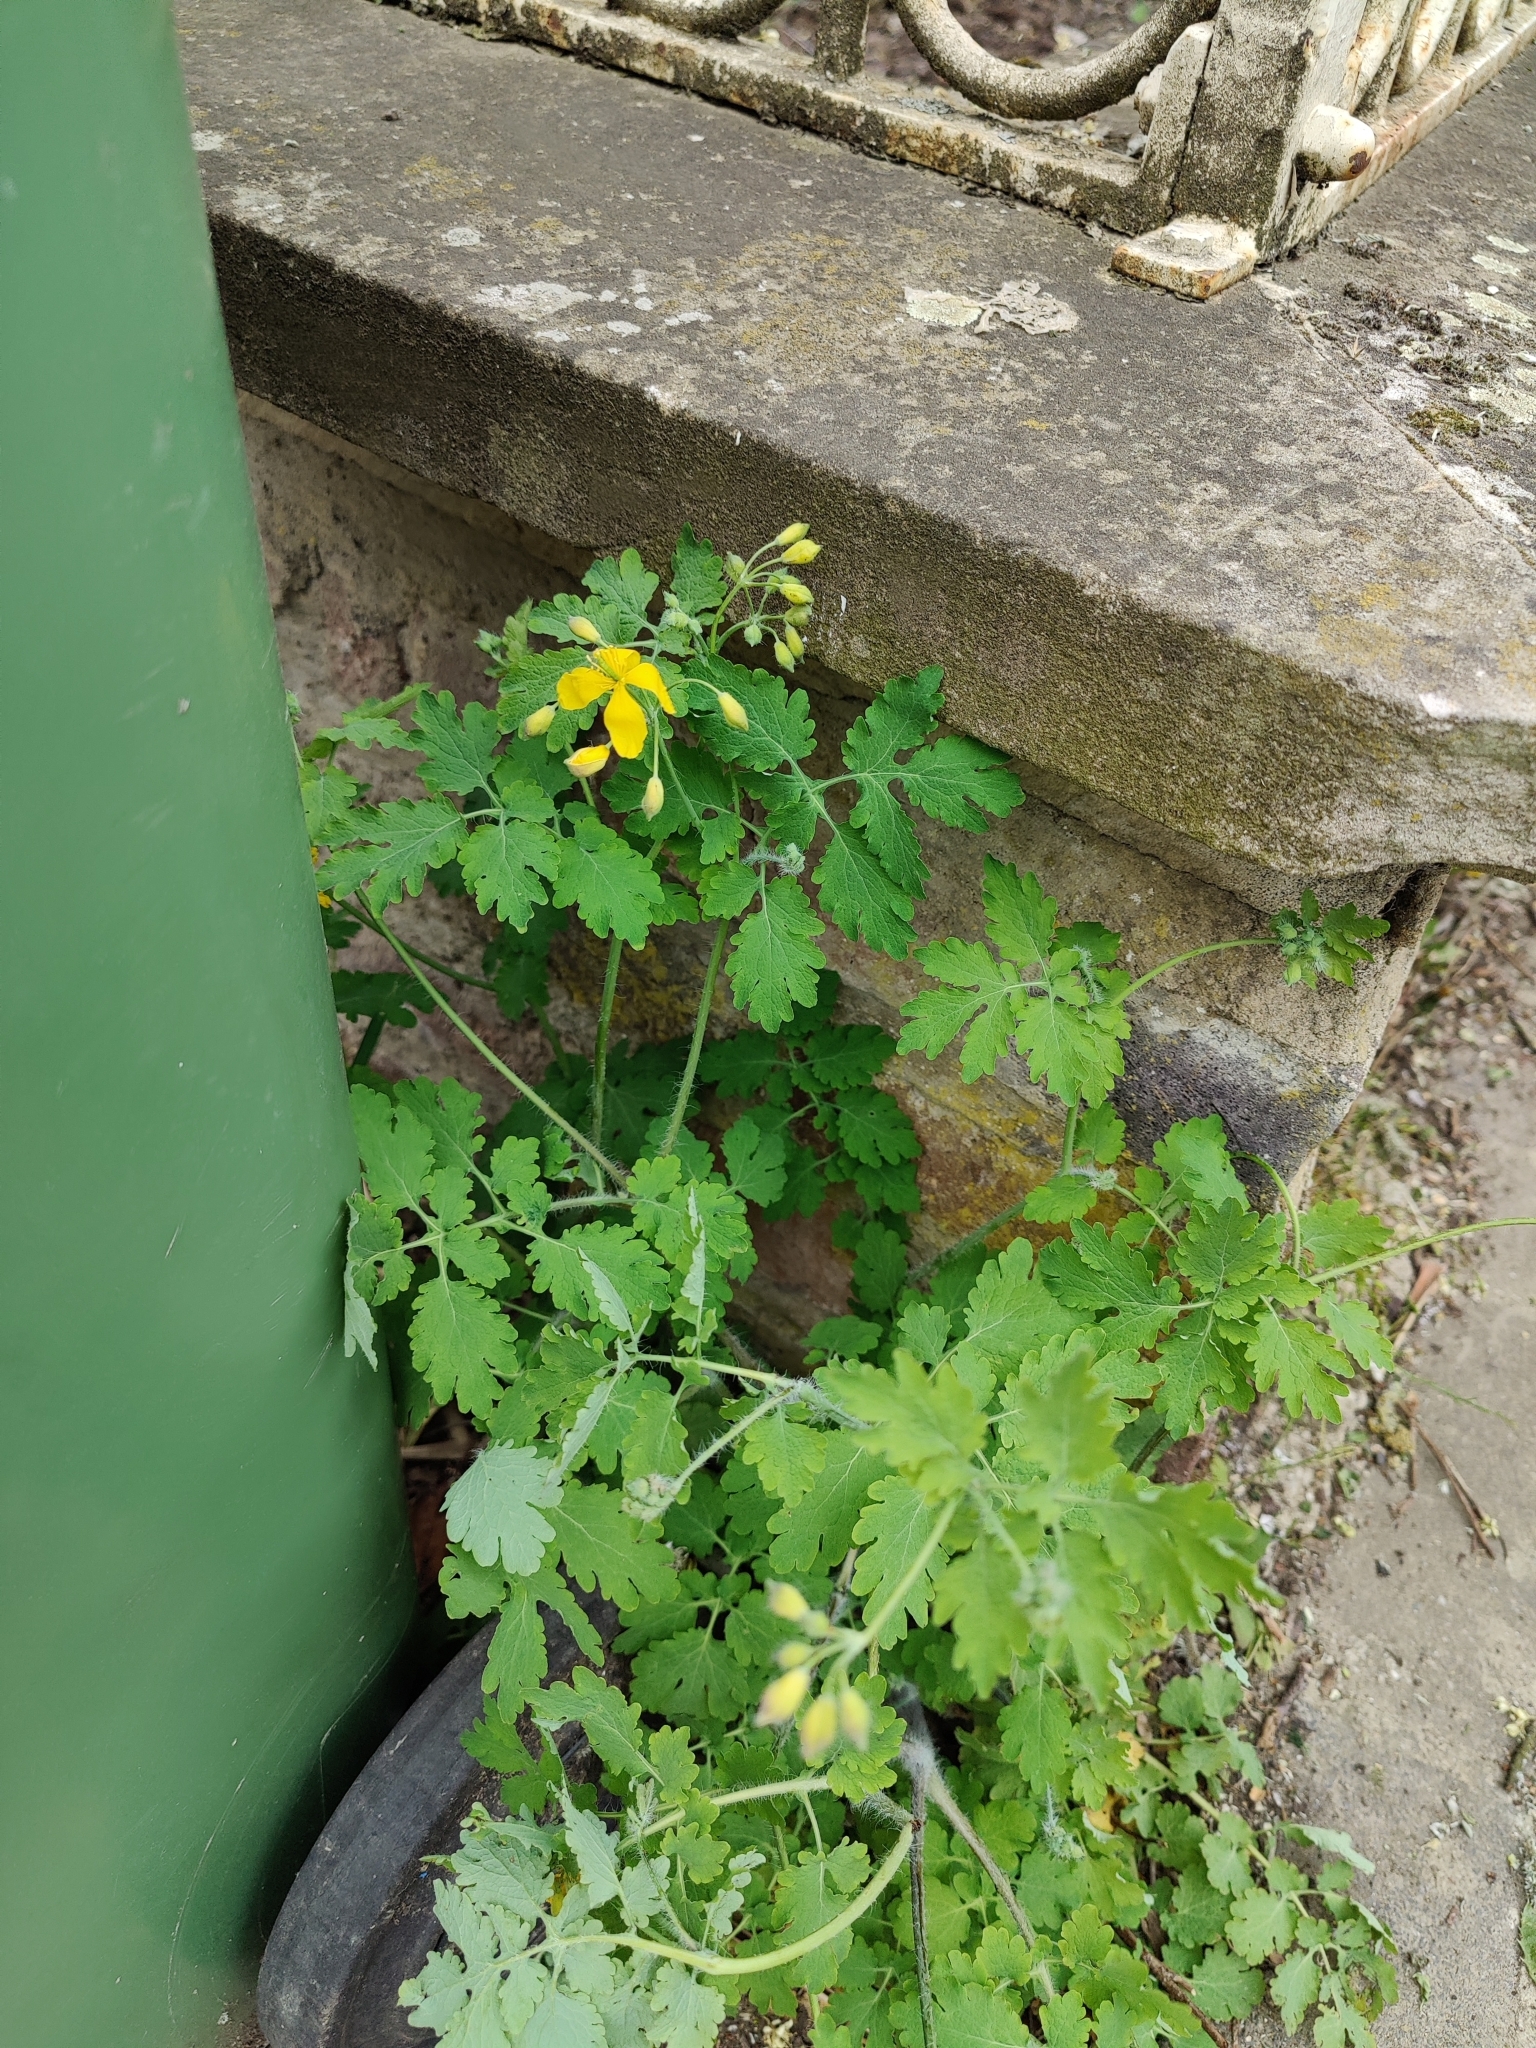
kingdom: Plantae
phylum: Tracheophyta
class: Magnoliopsida
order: Ranunculales
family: Papaveraceae
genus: Chelidonium
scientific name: Chelidonium majus
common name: Greater celandine
